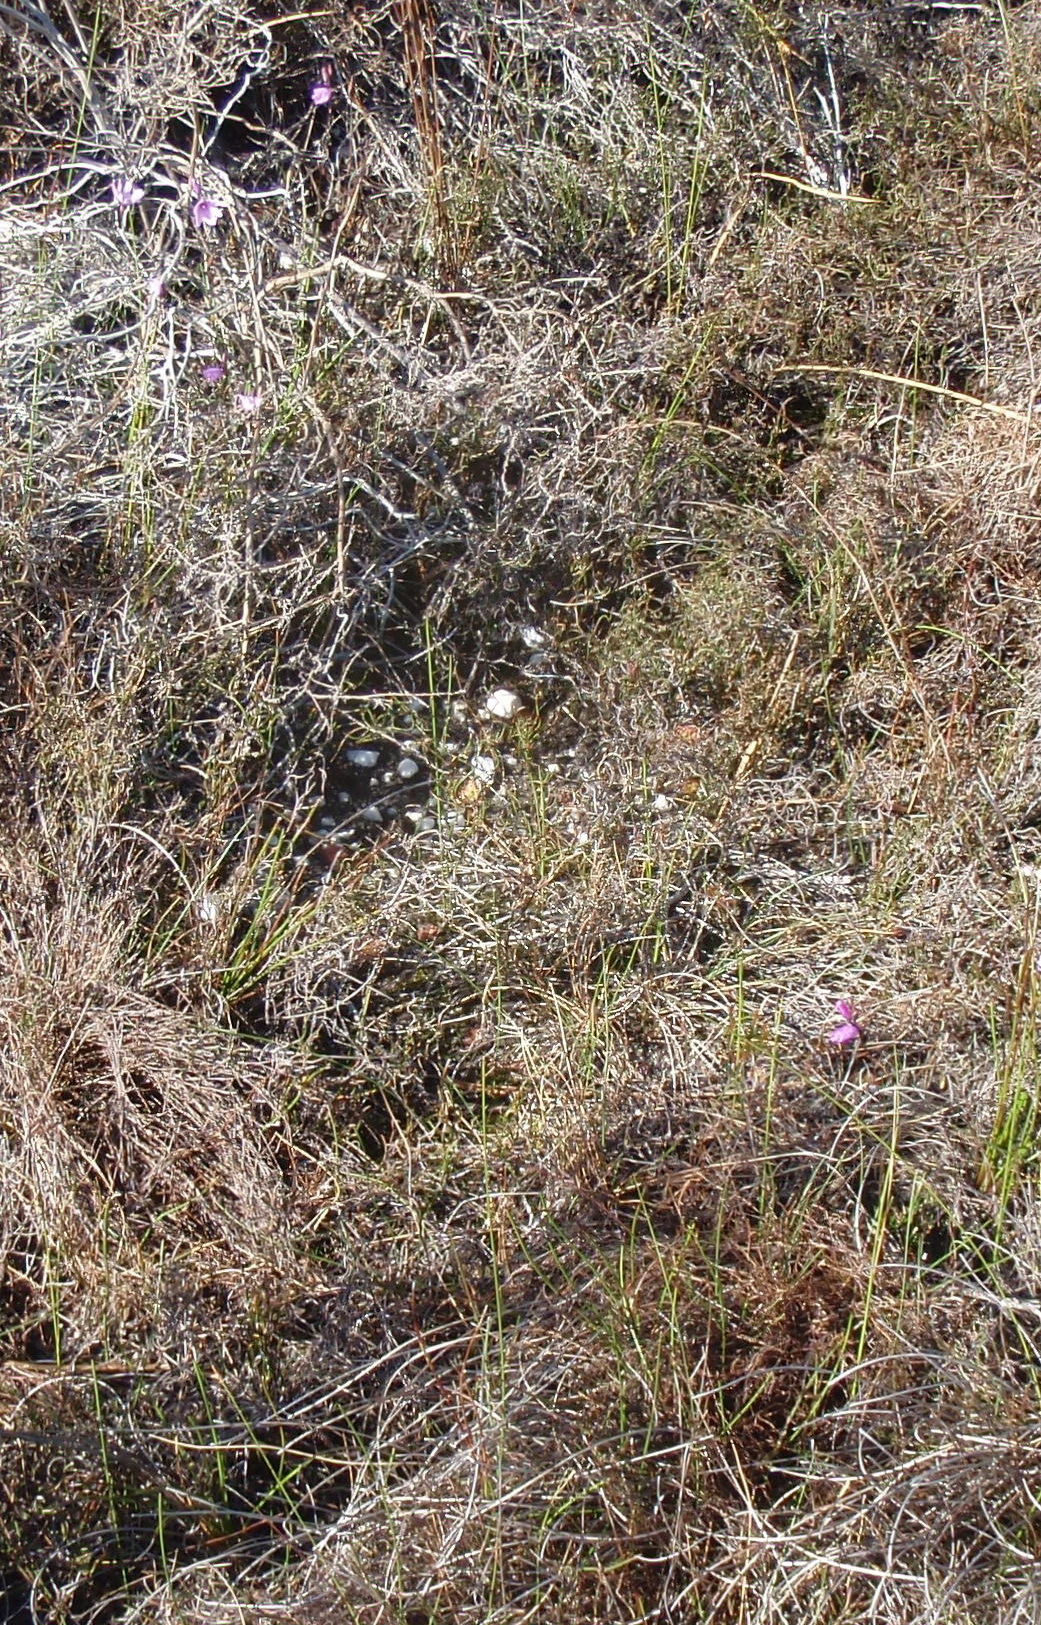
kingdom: Plantae
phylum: Tracheophyta
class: Liliopsida
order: Asparagales
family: Iridaceae
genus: Ixia
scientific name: Ixia micrandra
